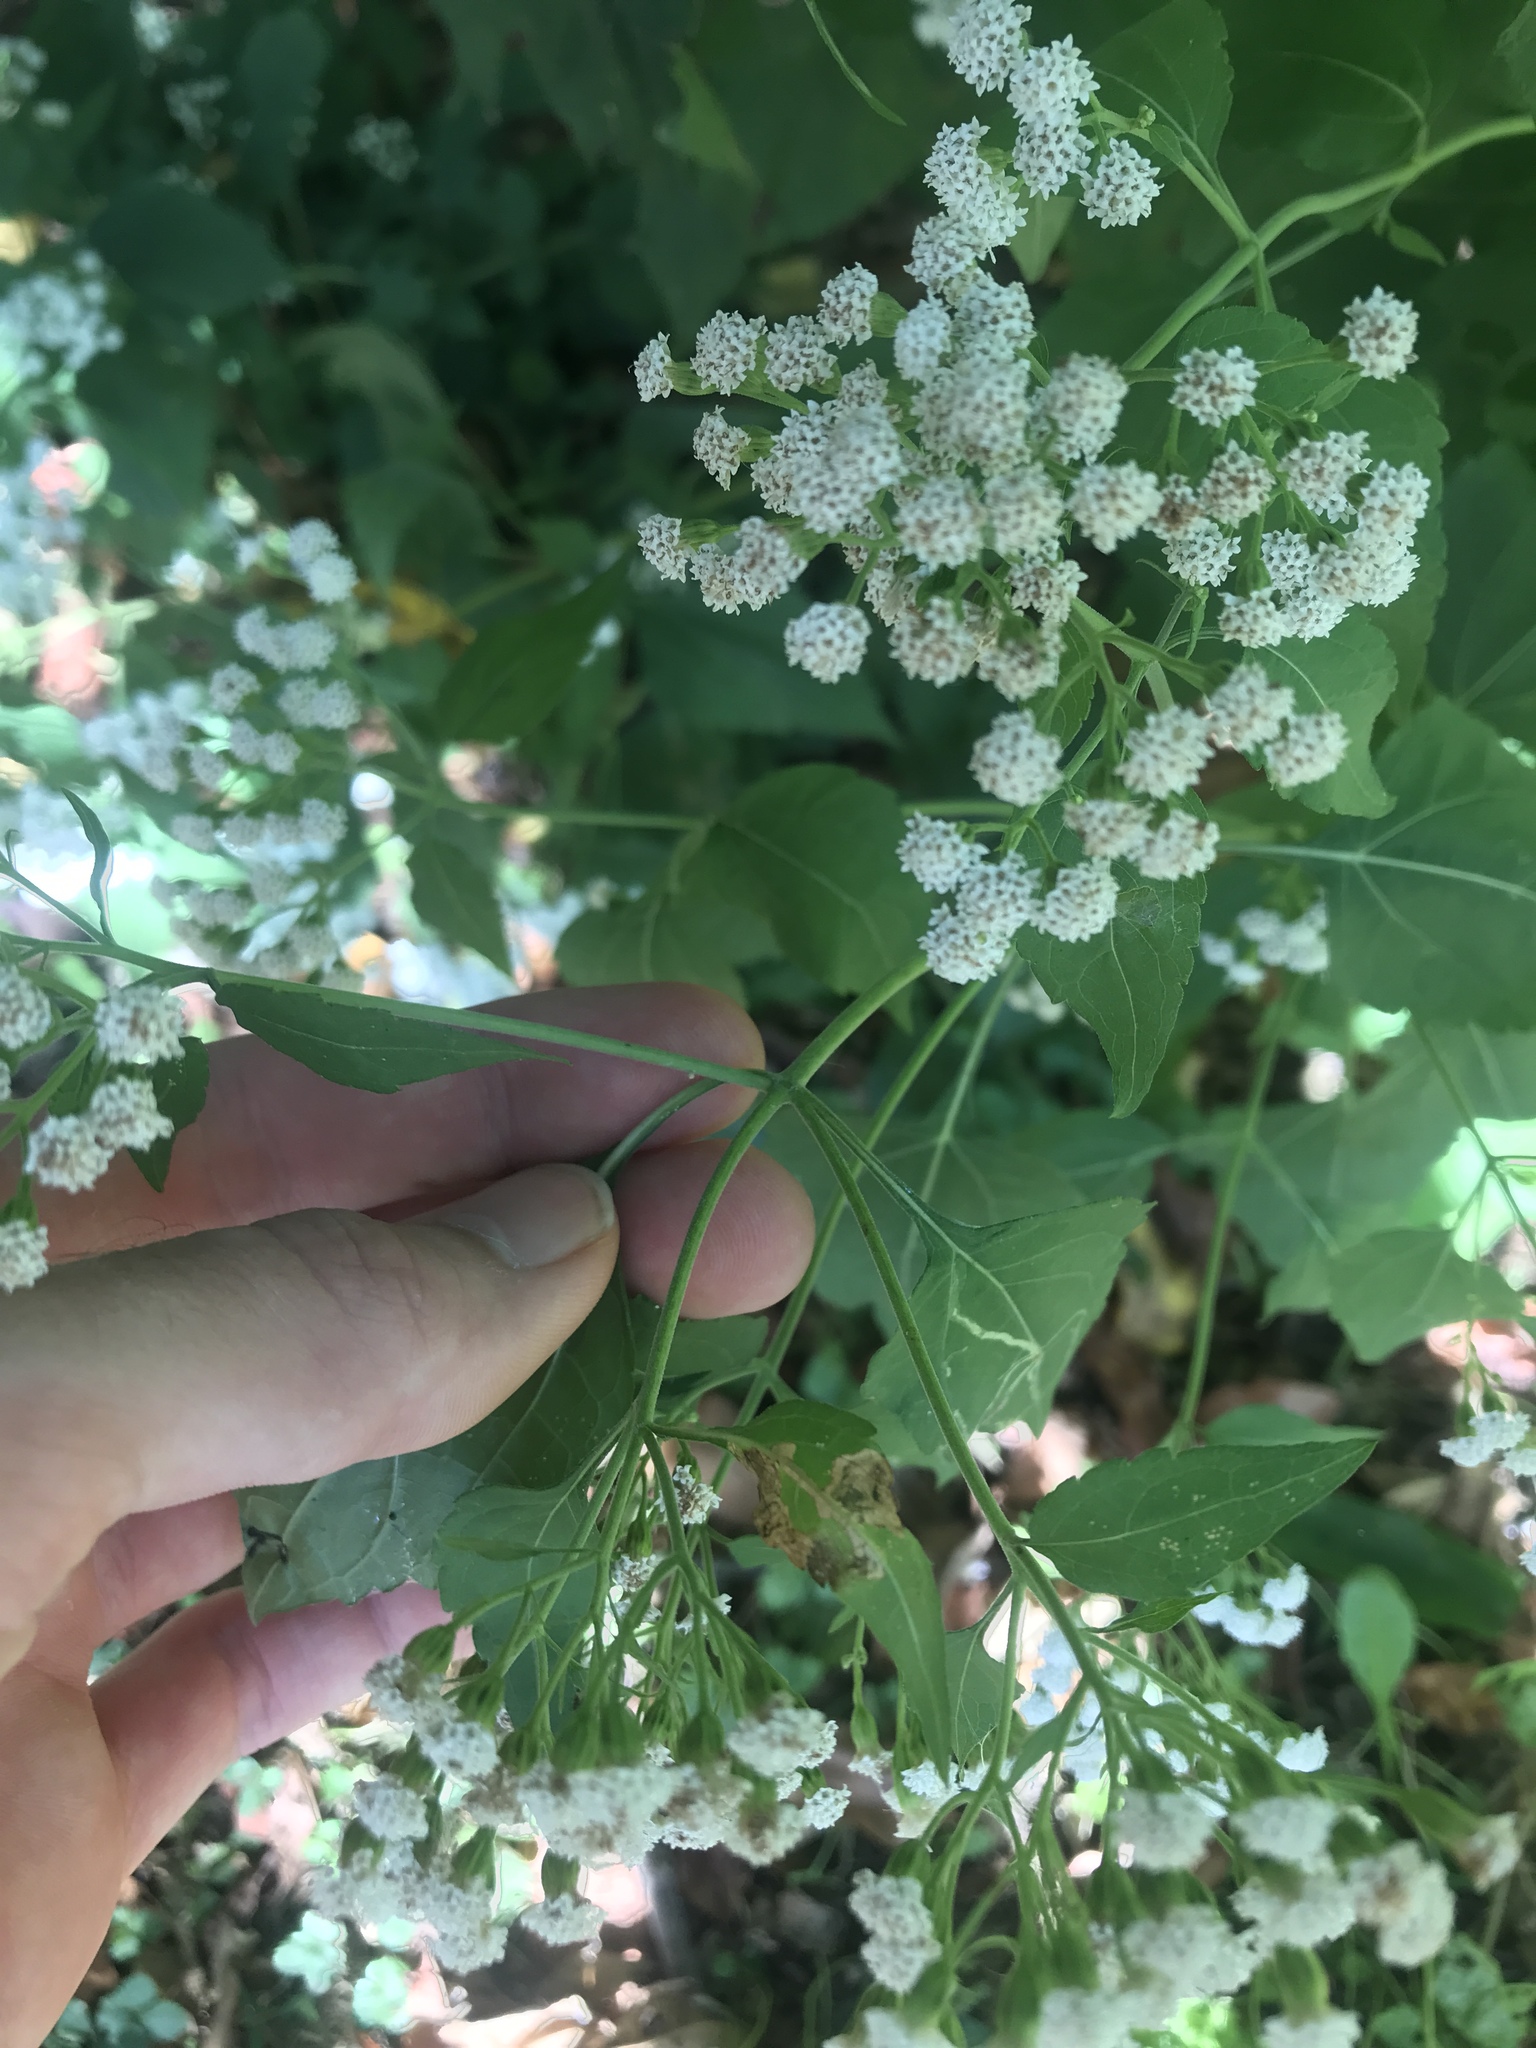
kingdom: Plantae
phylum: Tracheophyta
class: Magnoliopsida
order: Asterales
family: Asteraceae
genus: Ageratina
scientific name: Ageratina altissima
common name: White snakeroot
